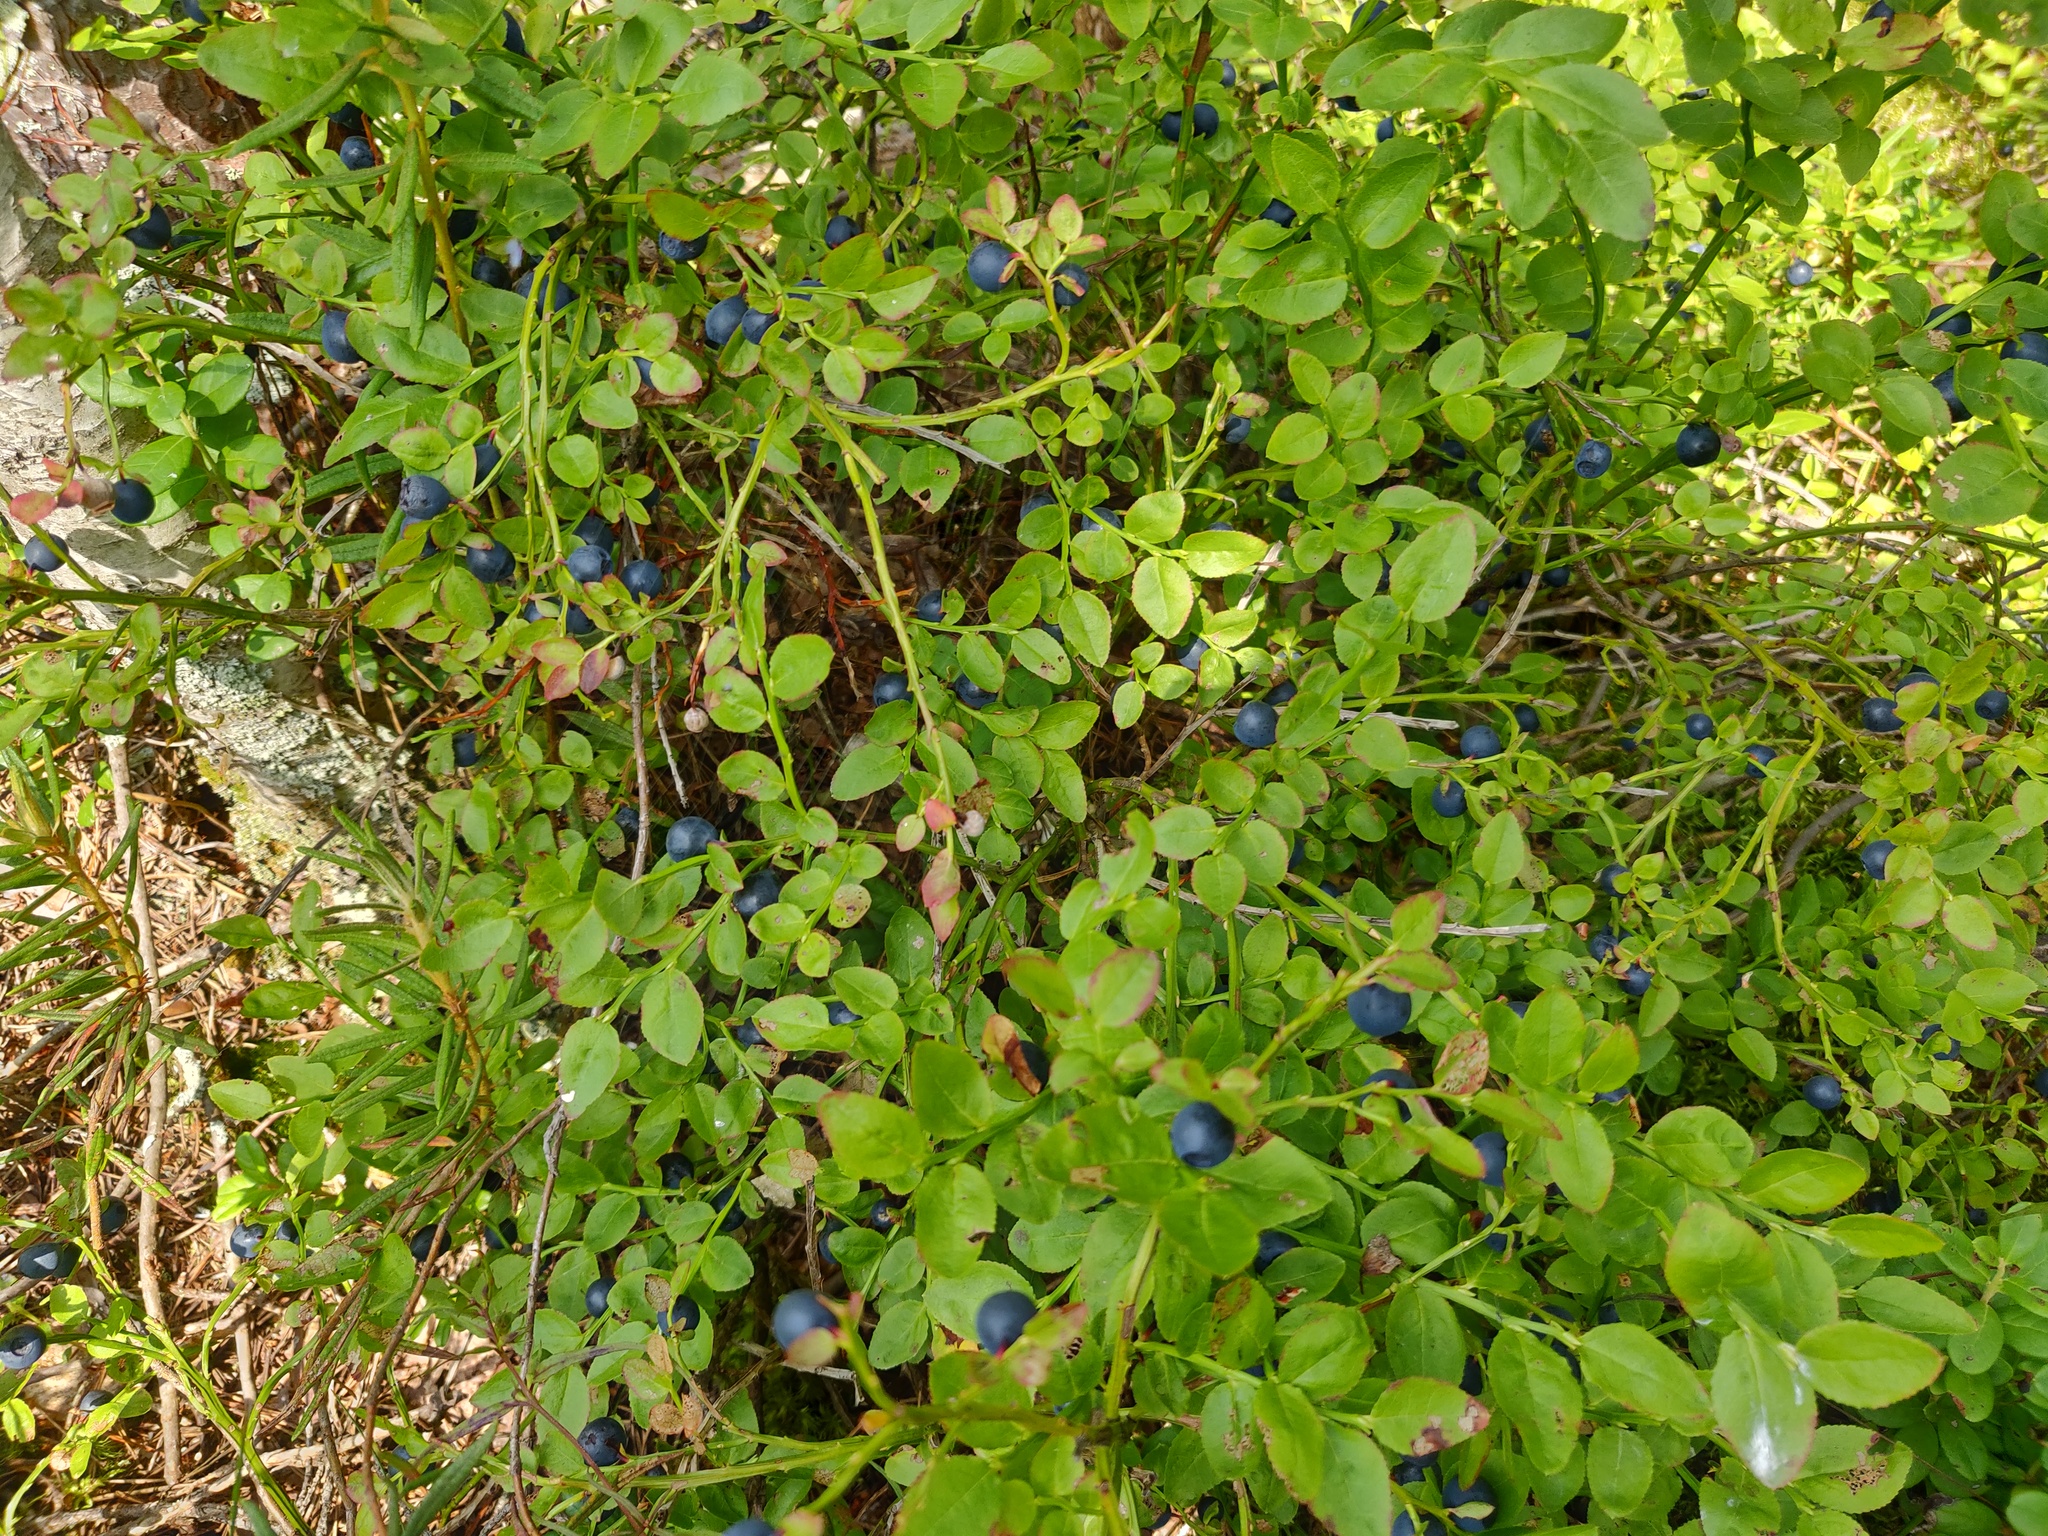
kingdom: Plantae
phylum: Tracheophyta
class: Magnoliopsida
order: Ericales
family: Ericaceae
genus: Vaccinium
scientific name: Vaccinium myrtillus
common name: Bilberry
